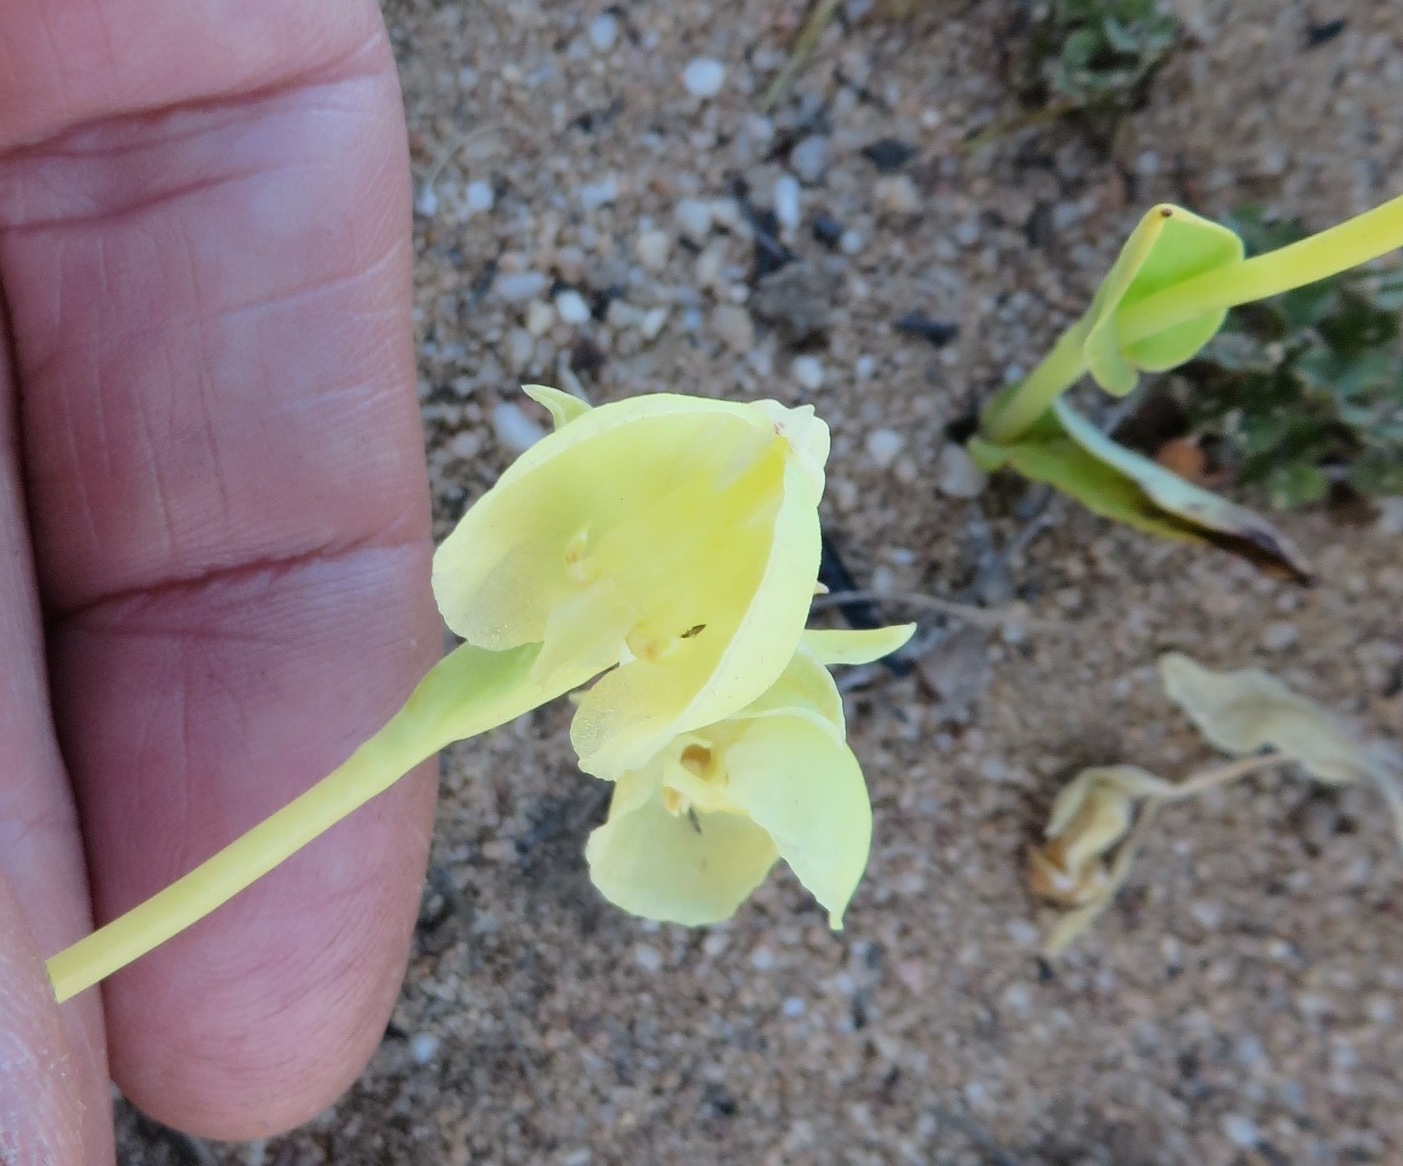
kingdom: Plantae
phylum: Tracheophyta
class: Liliopsida
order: Asparagales
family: Orchidaceae
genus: Pterygodium
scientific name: Pterygodium catholicum
